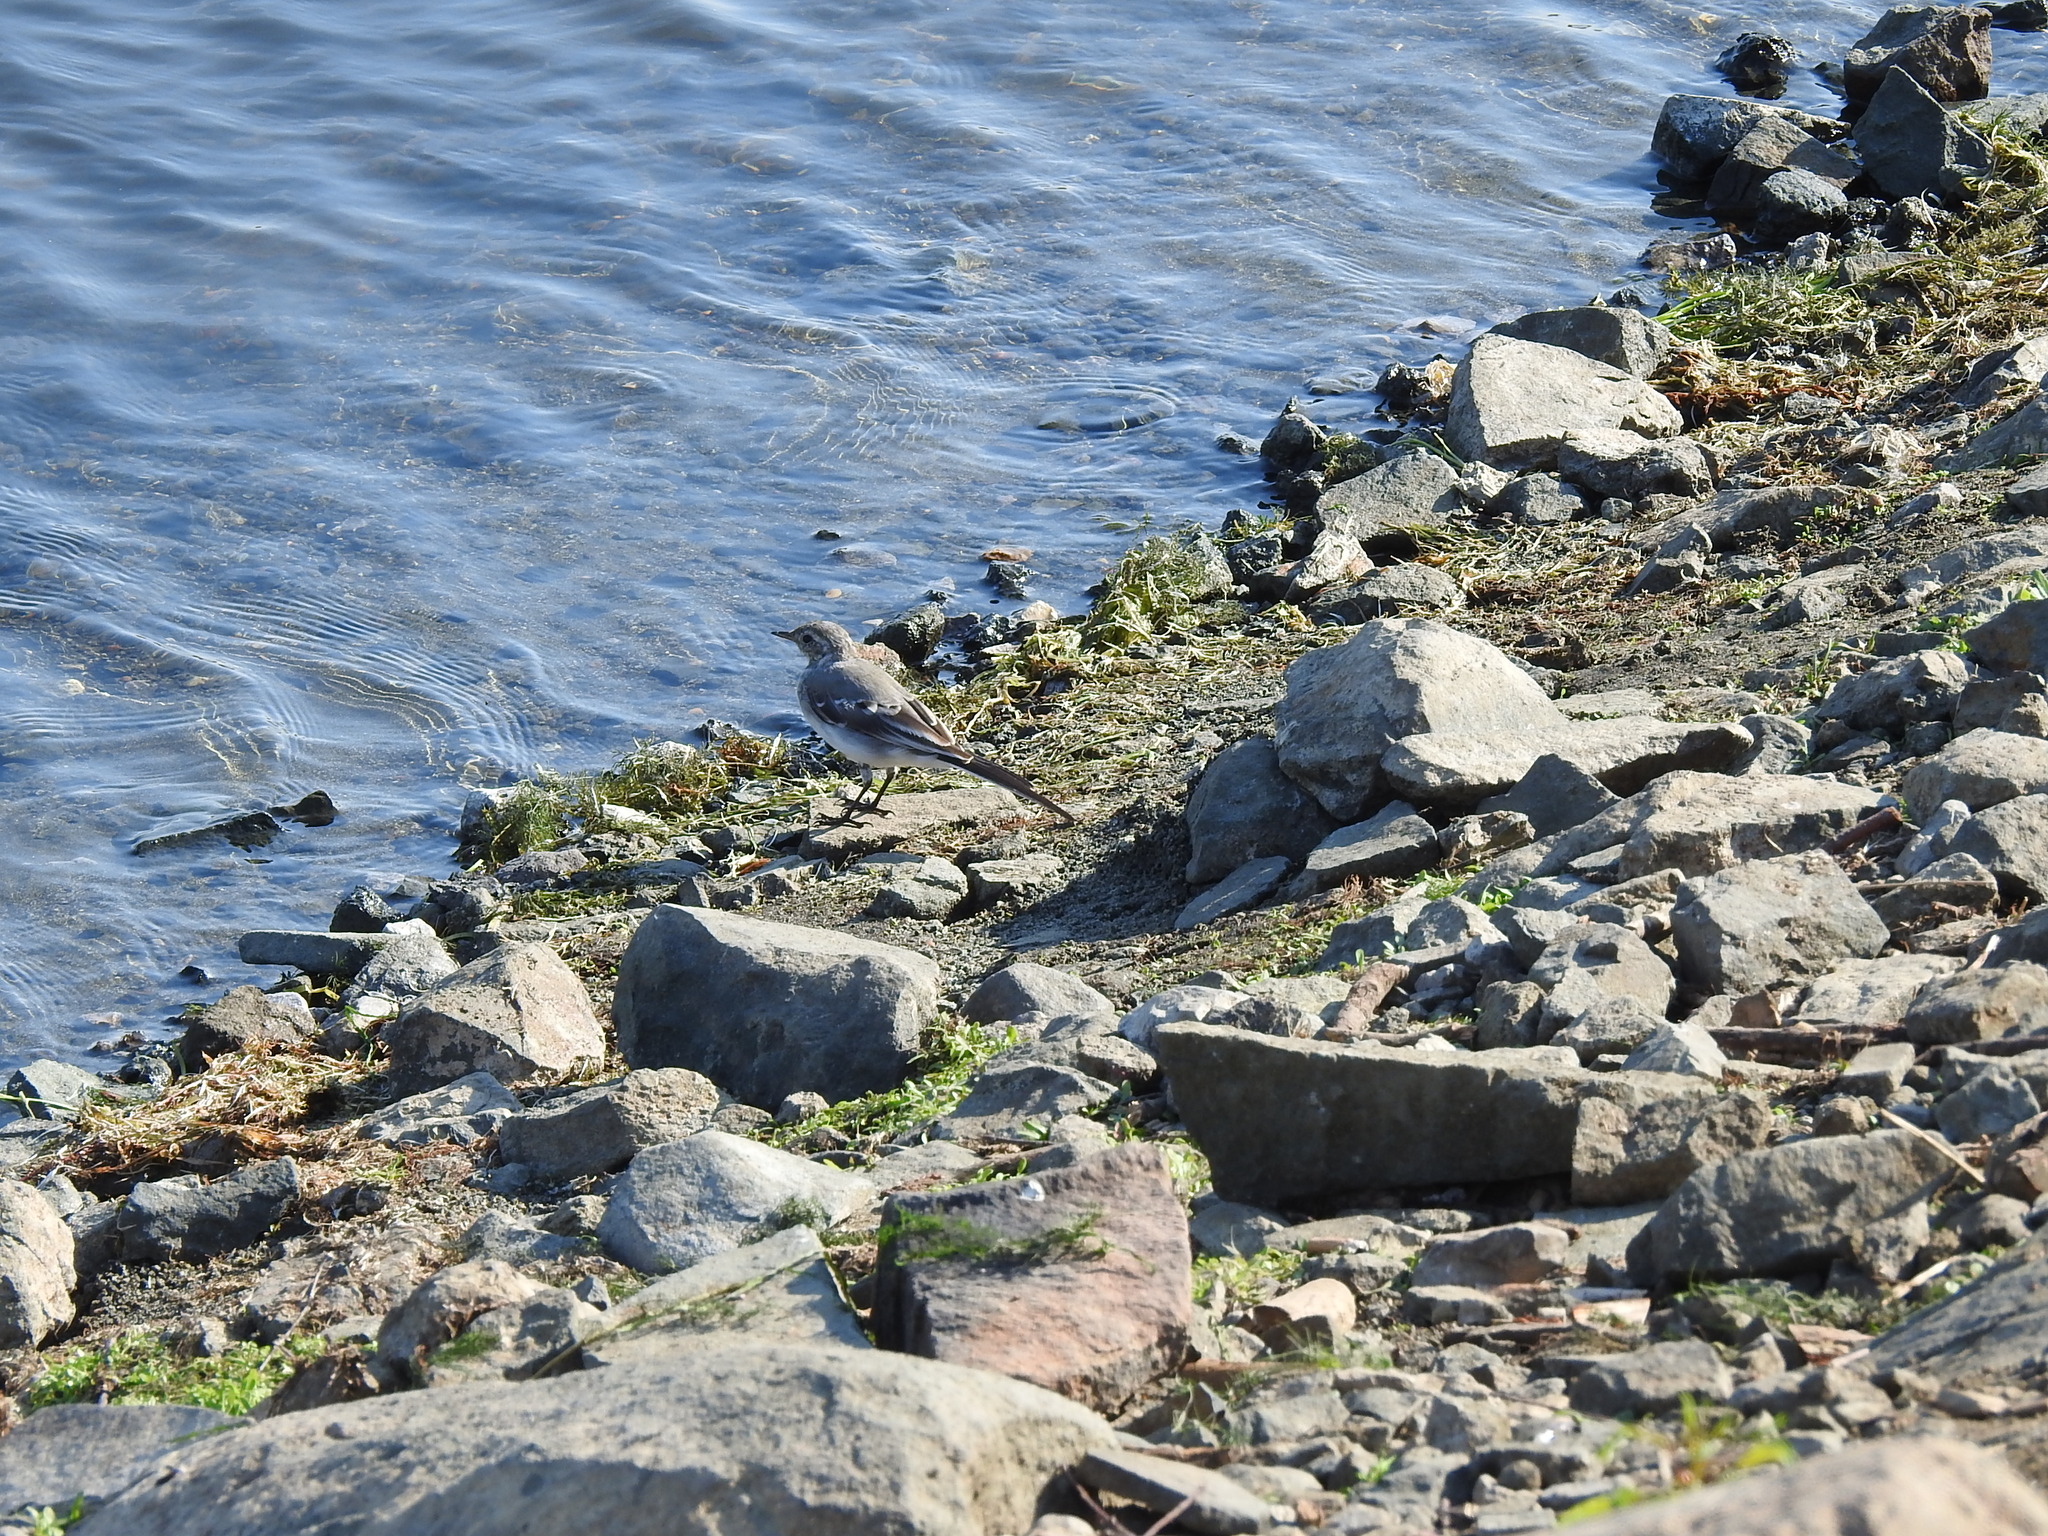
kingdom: Animalia
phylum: Chordata
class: Aves
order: Passeriformes
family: Motacillidae
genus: Motacilla
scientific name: Motacilla alba
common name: White wagtail
